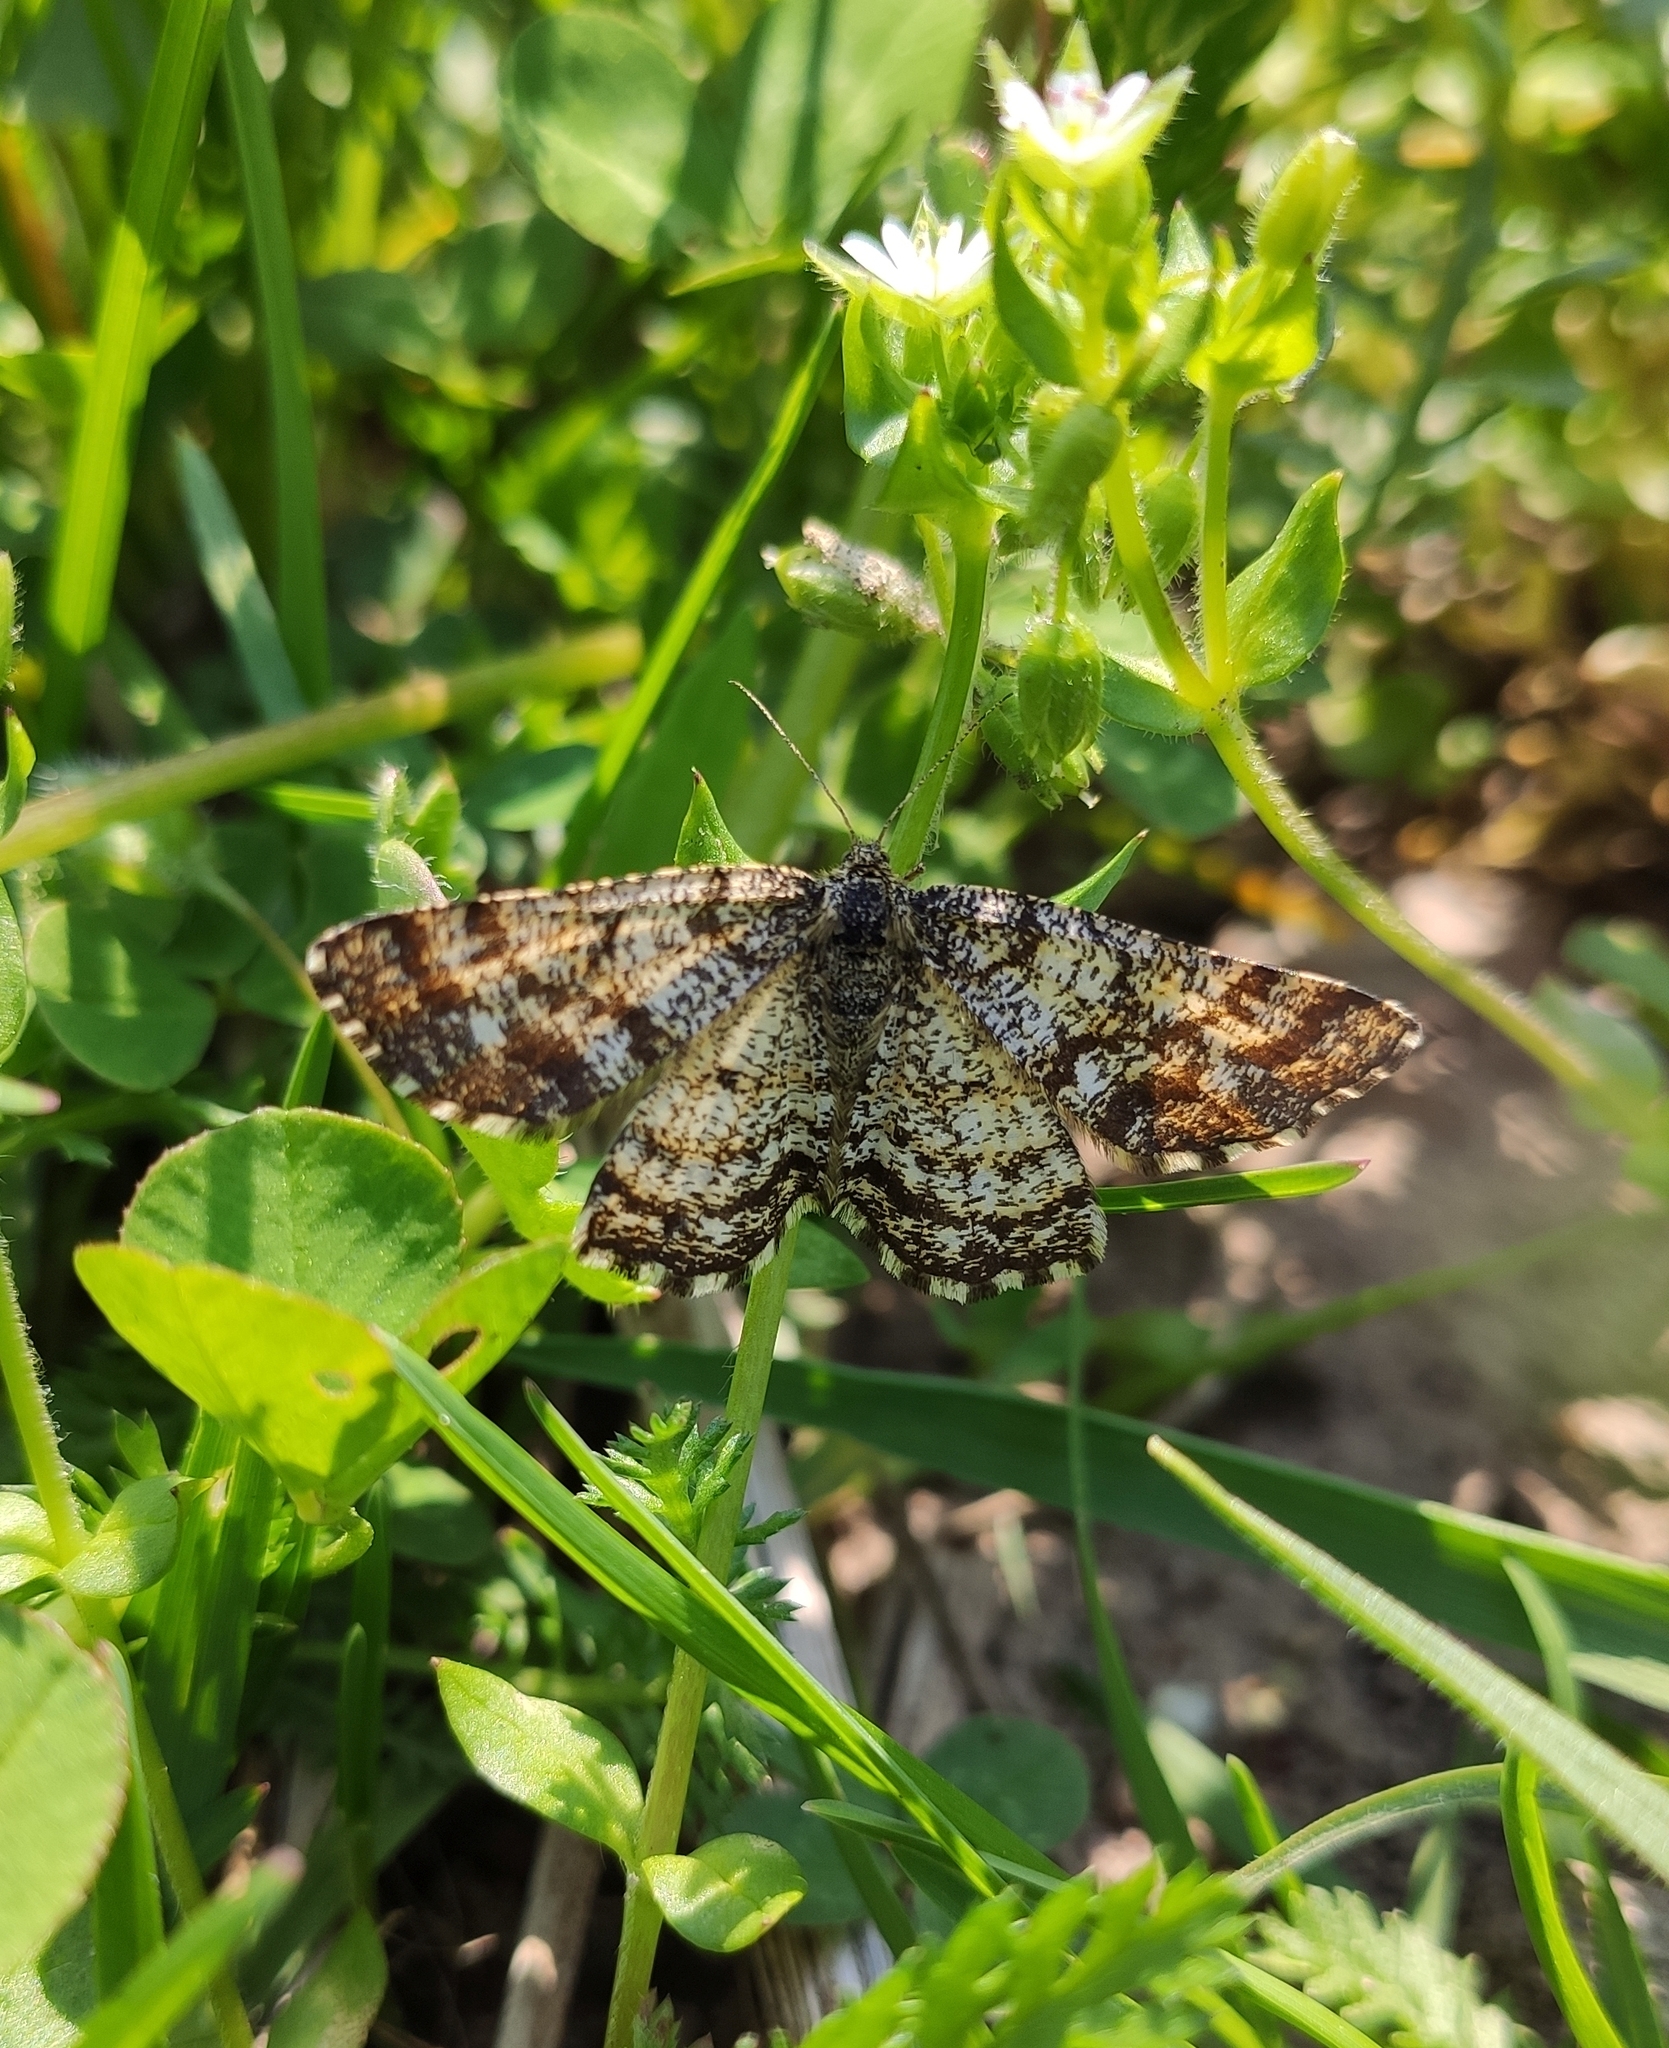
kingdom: Animalia
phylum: Arthropoda
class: Insecta
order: Lepidoptera
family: Geometridae
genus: Ematurga
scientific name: Ematurga atomaria
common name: Common heath
